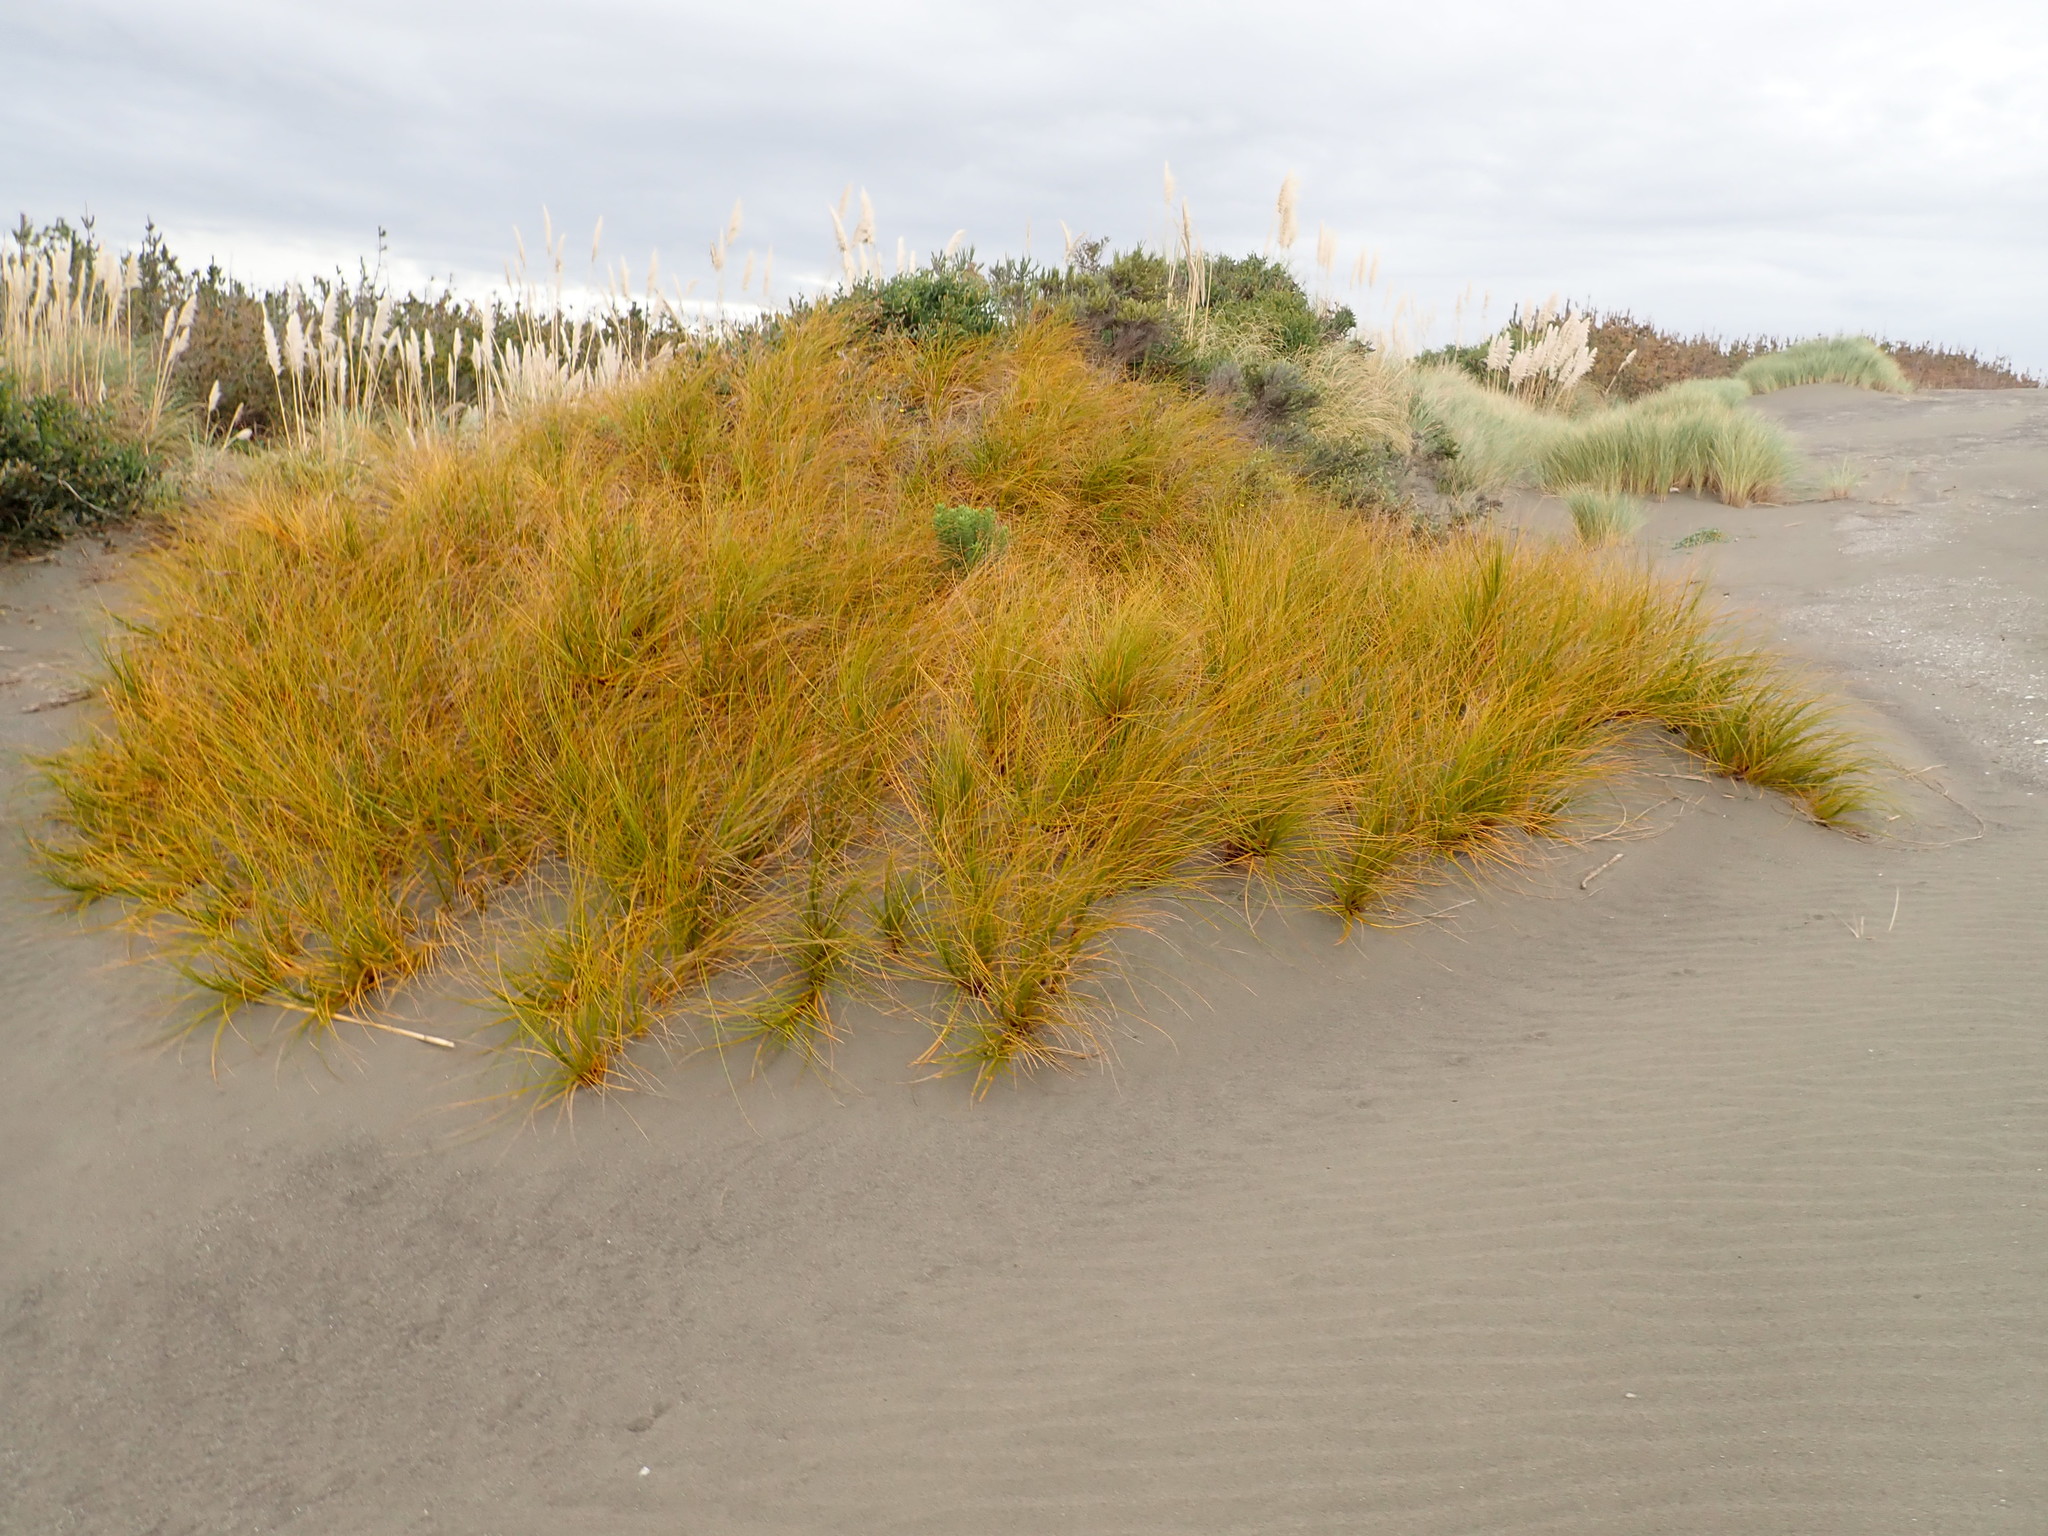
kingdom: Plantae
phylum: Tracheophyta
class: Liliopsida
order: Poales
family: Cyperaceae
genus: Ficinia
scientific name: Ficinia spiralis
